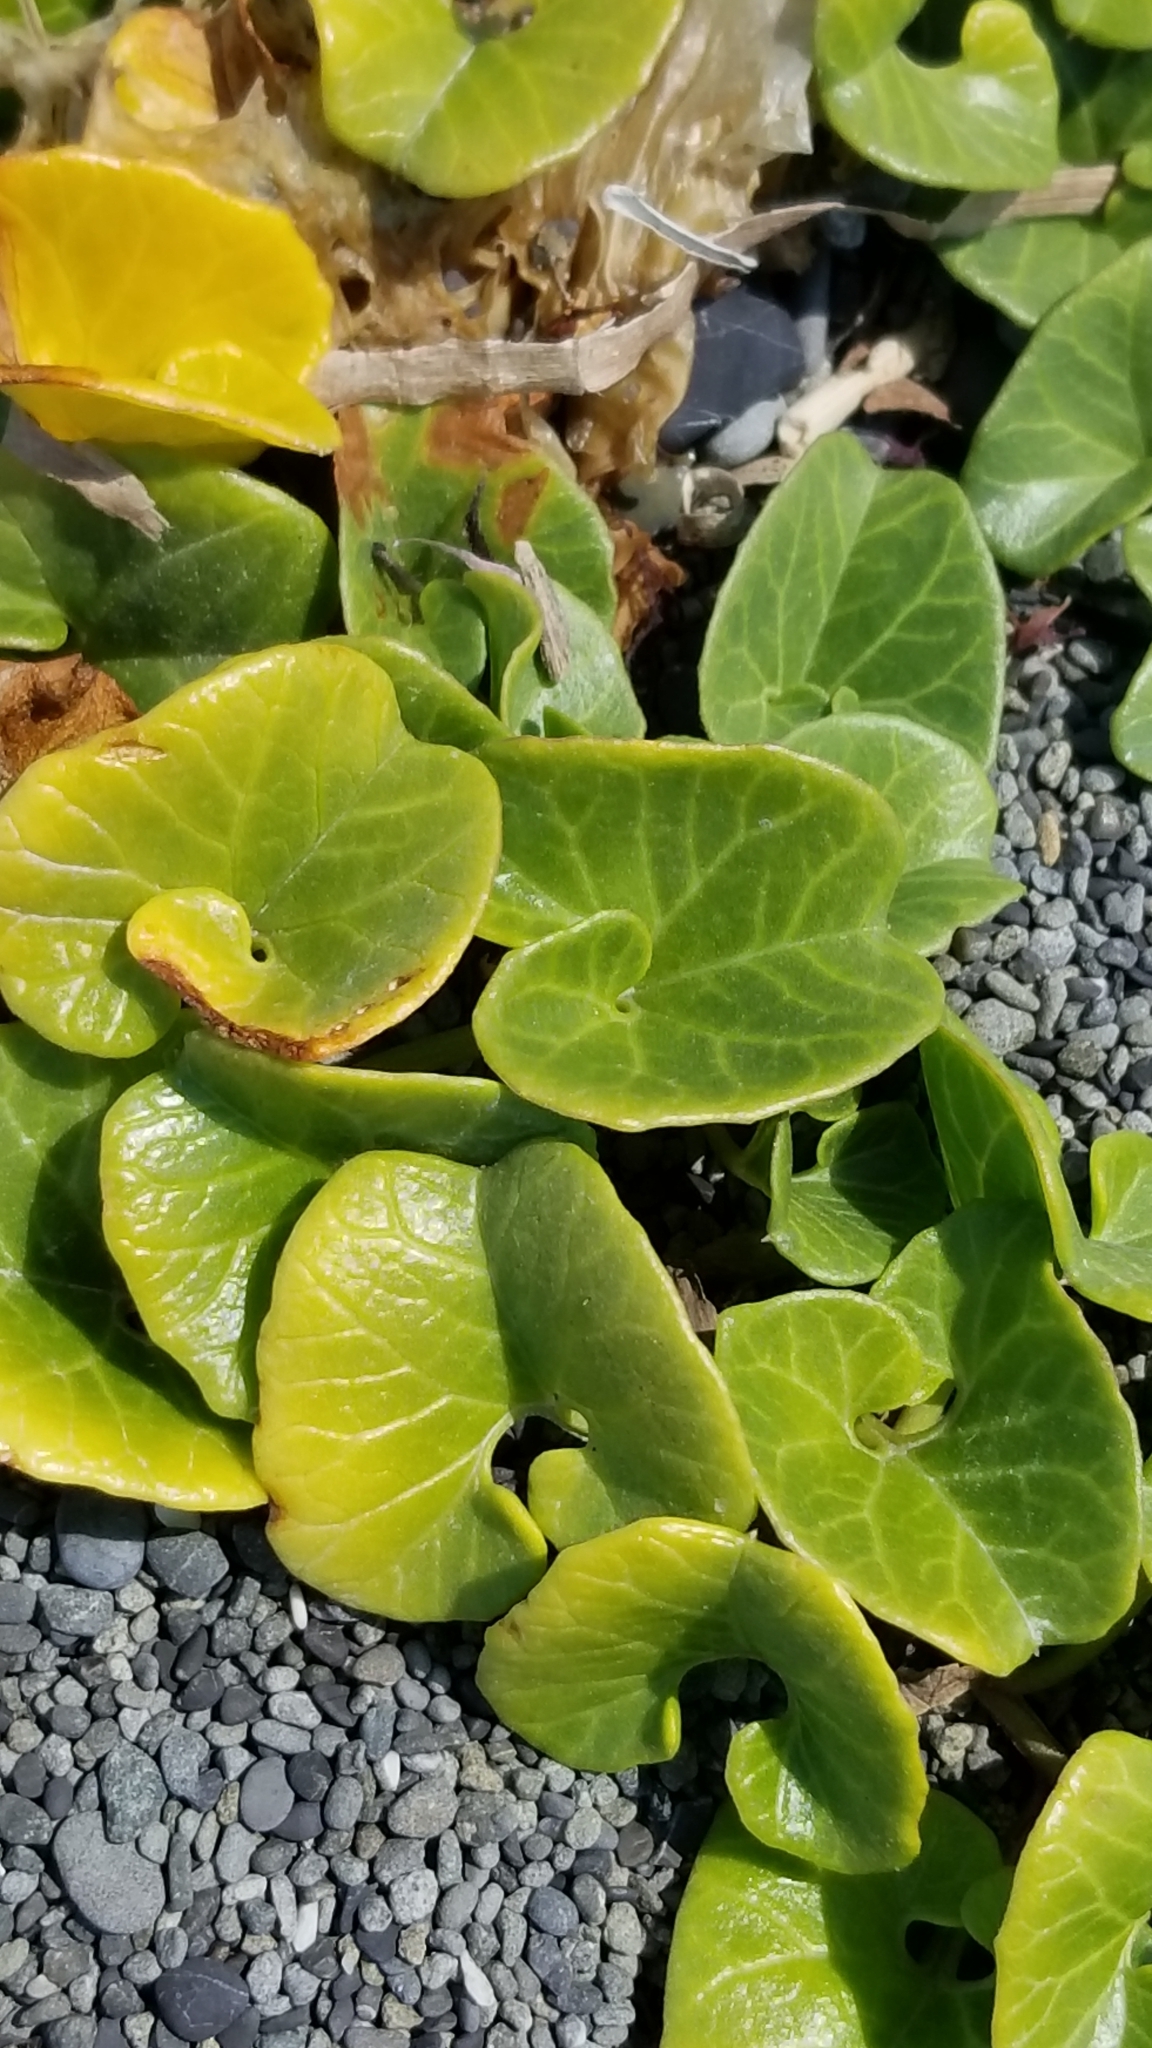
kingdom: Plantae
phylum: Tracheophyta
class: Magnoliopsida
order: Solanales
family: Convolvulaceae
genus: Calystegia
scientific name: Calystegia soldanella
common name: Sea bindweed
